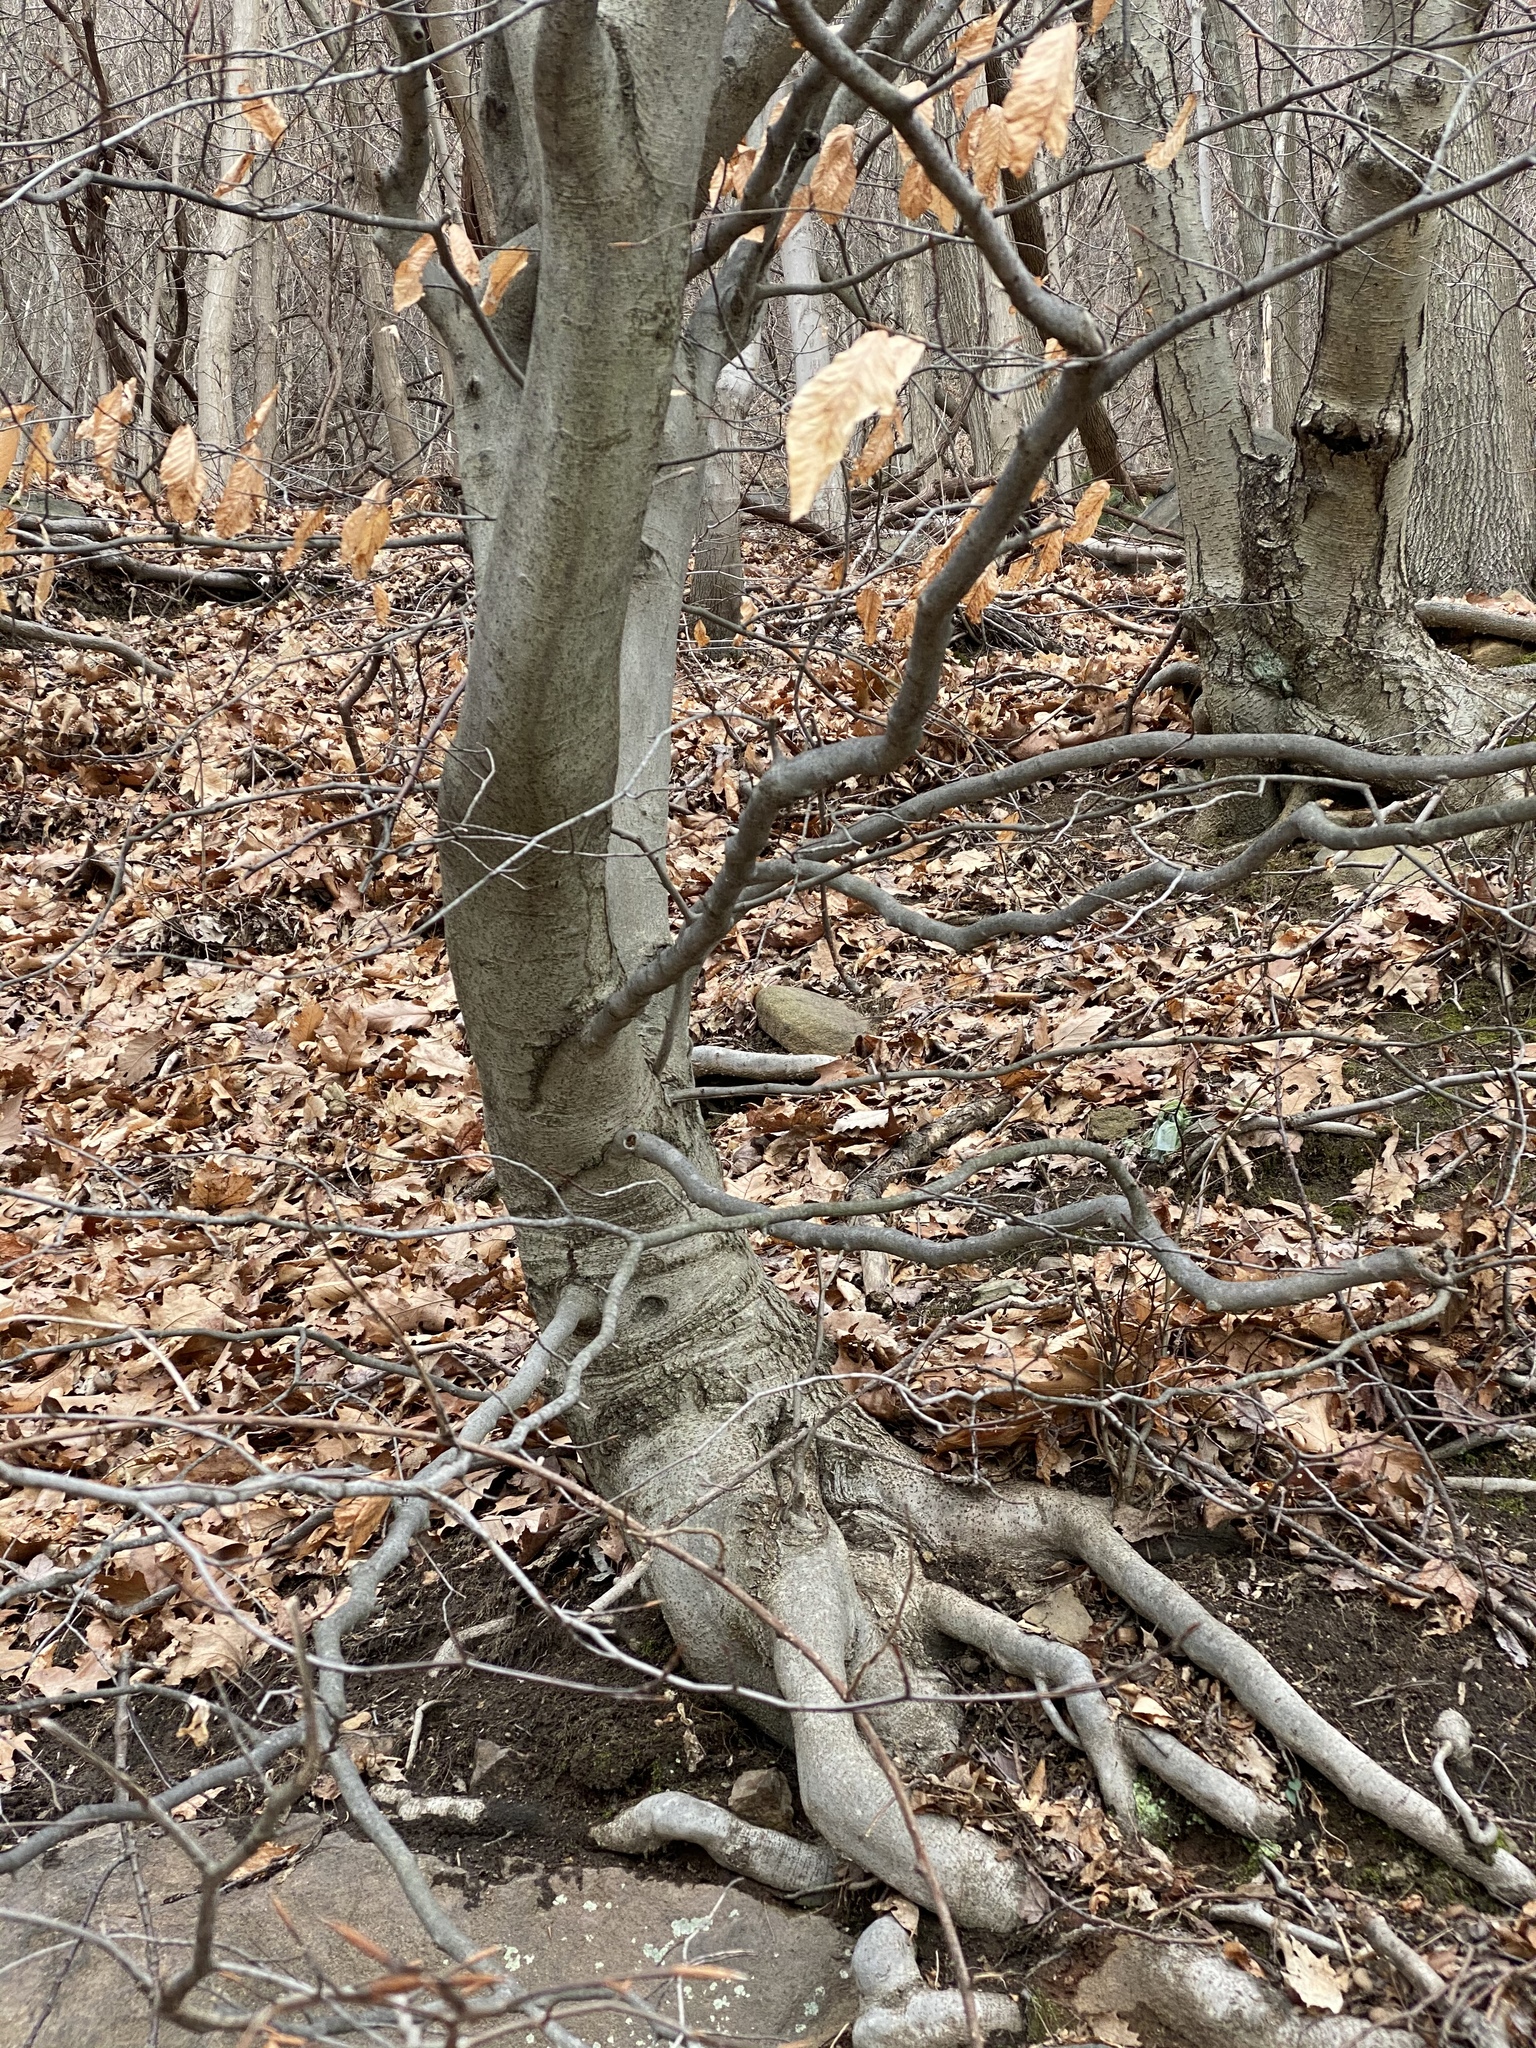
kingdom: Plantae
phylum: Tracheophyta
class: Magnoliopsida
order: Fagales
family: Fagaceae
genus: Fagus
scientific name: Fagus grandifolia
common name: American beech
